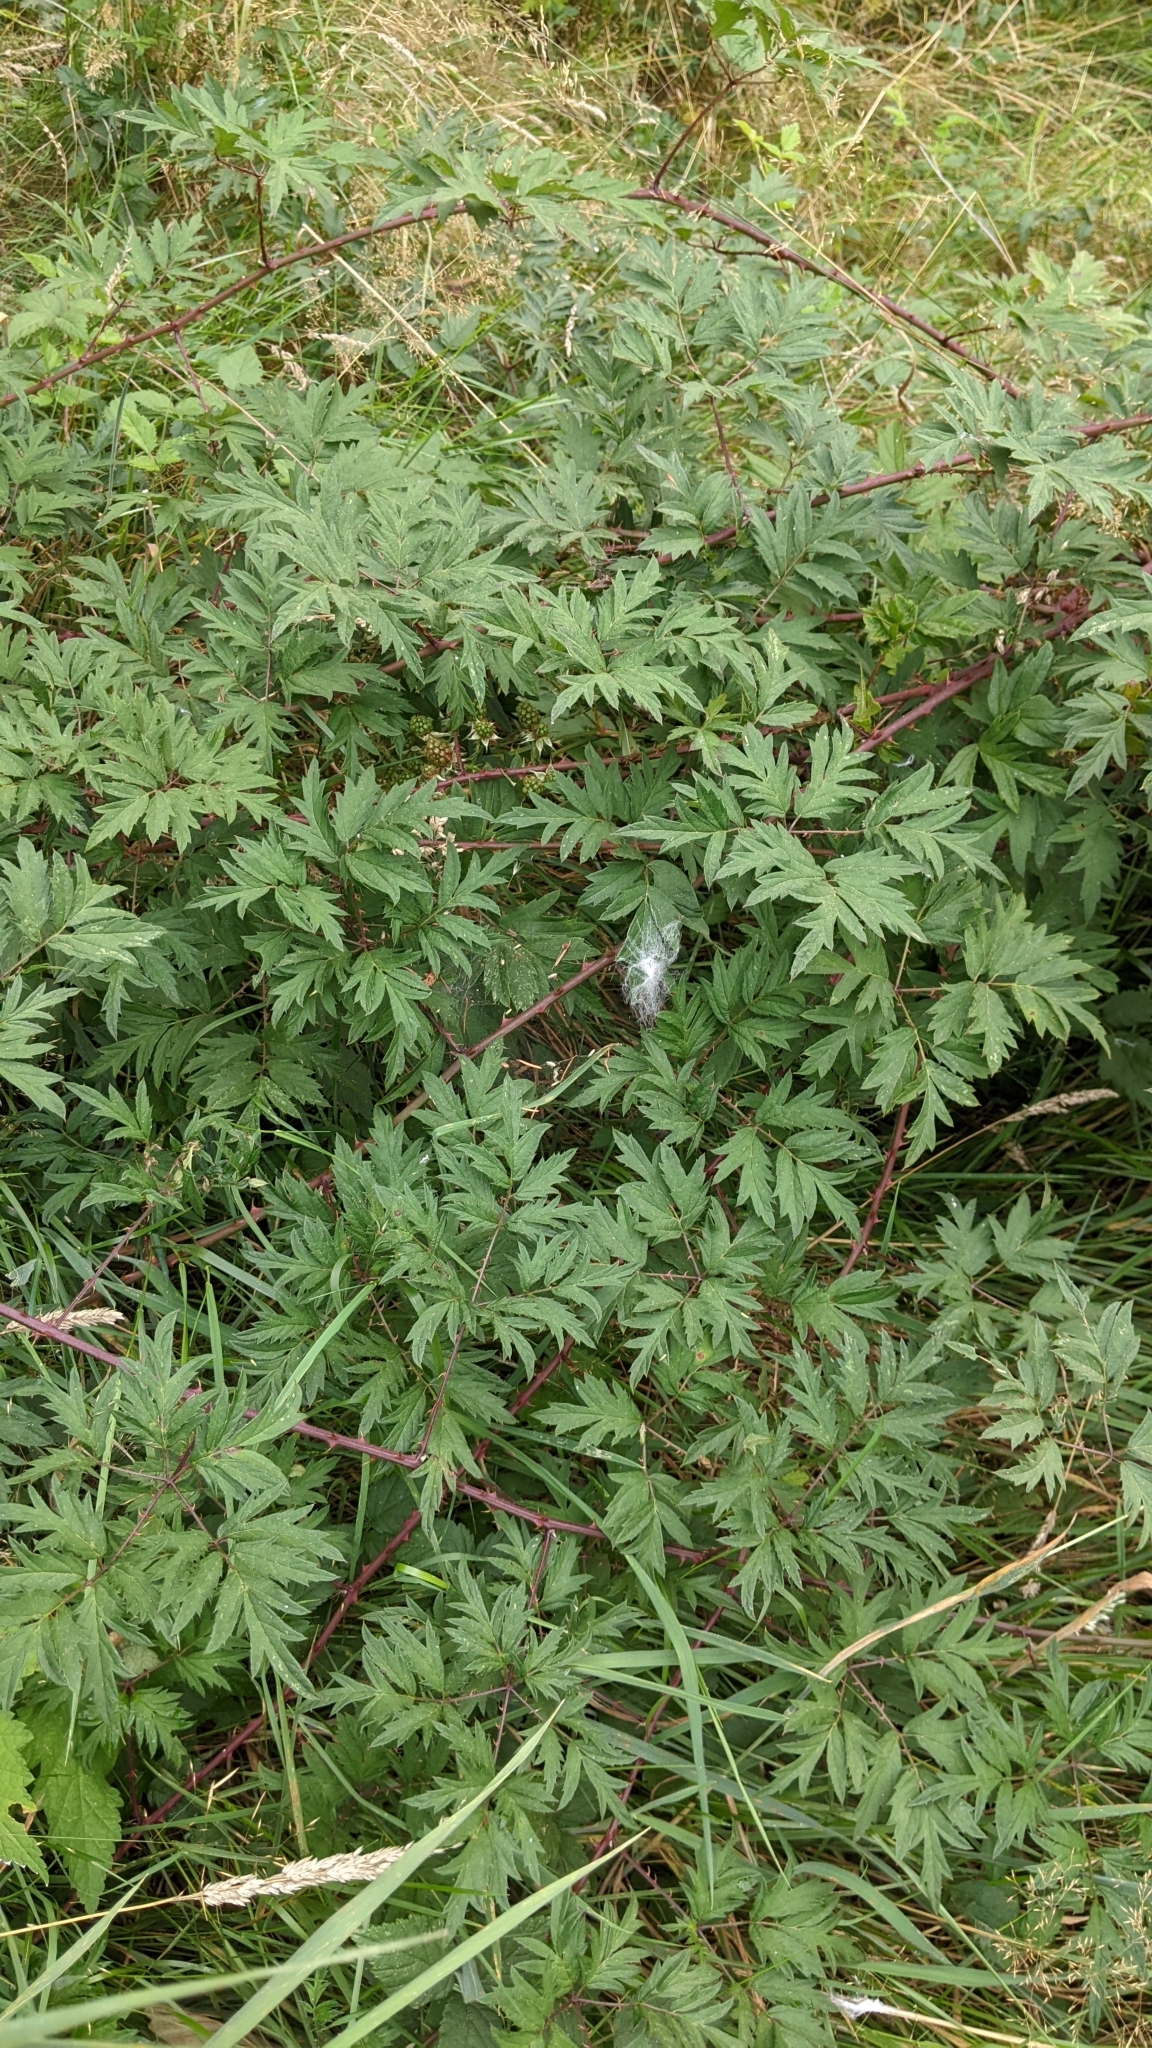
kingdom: Plantae
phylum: Tracheophyta
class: Magnoliopsida
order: Rosales
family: Rosaceae
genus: Rubus
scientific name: Rubus laciniatus
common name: Evergreen blackberry
